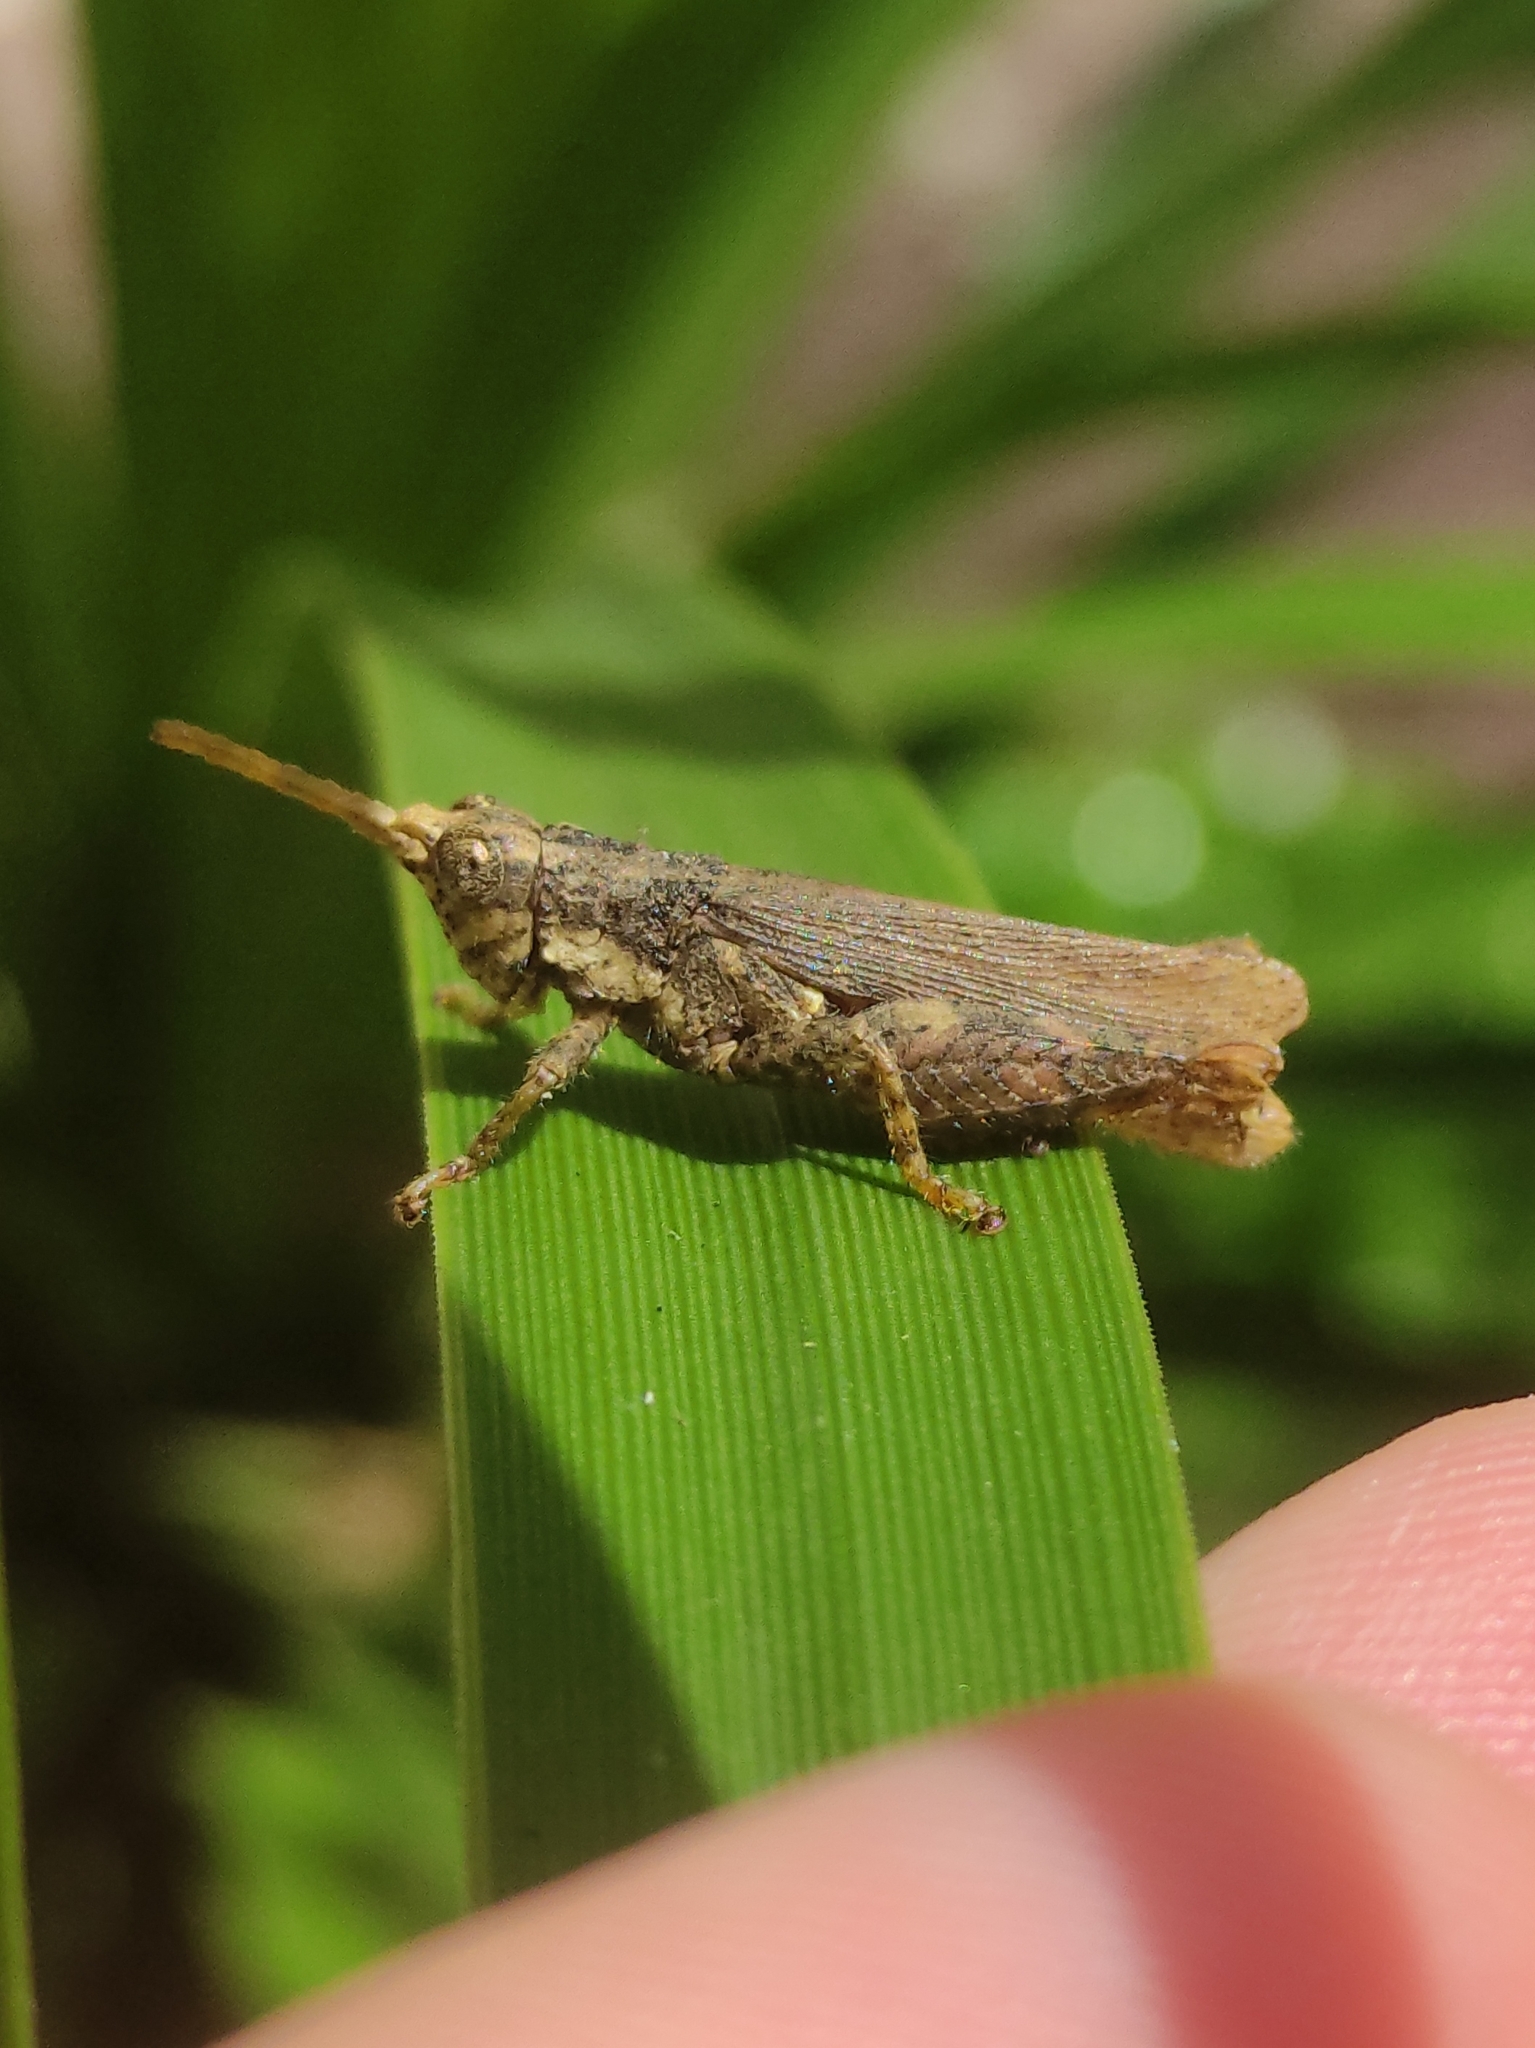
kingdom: Animalia
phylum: Arthropoda
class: Insecta
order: Orthoptera
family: Acrididae
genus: Vilerna
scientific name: Vilerna rugulosa
